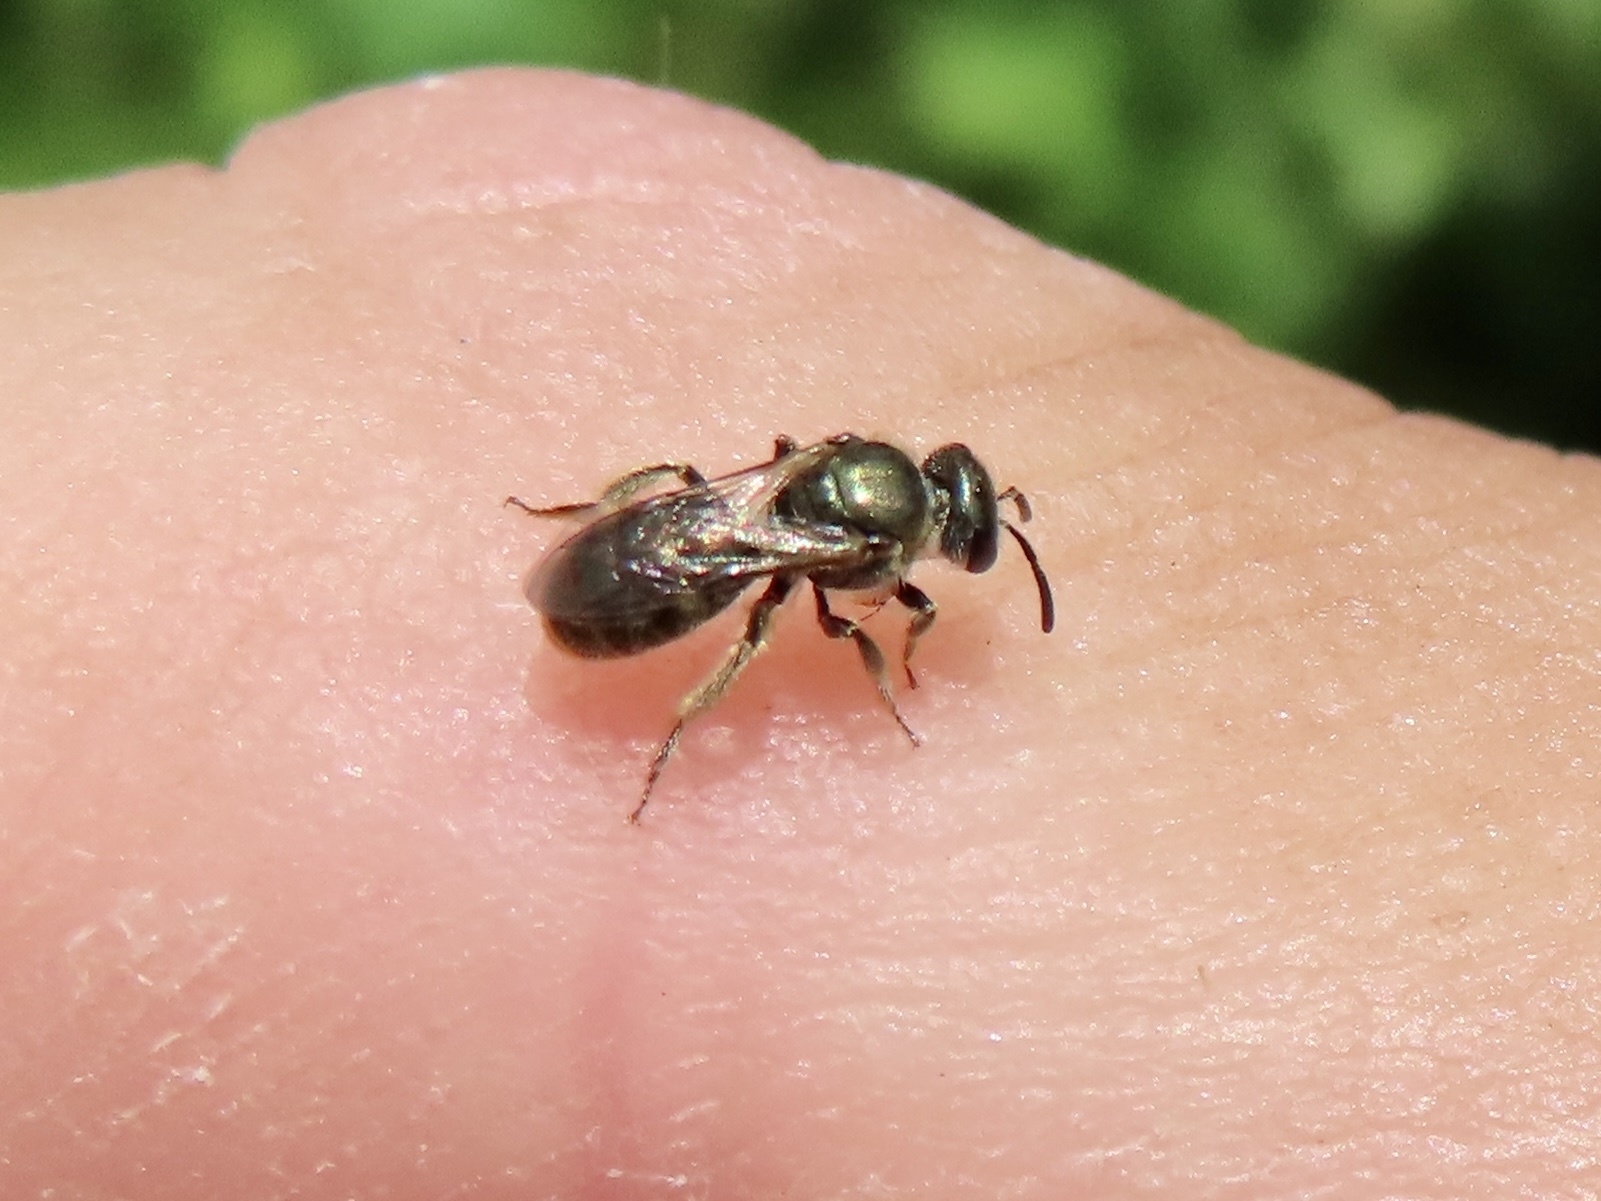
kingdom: Animalia
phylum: Arthropoda
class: Insecta
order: Hymenoptera
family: Halictidae
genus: Dialictus
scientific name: Dialictus
